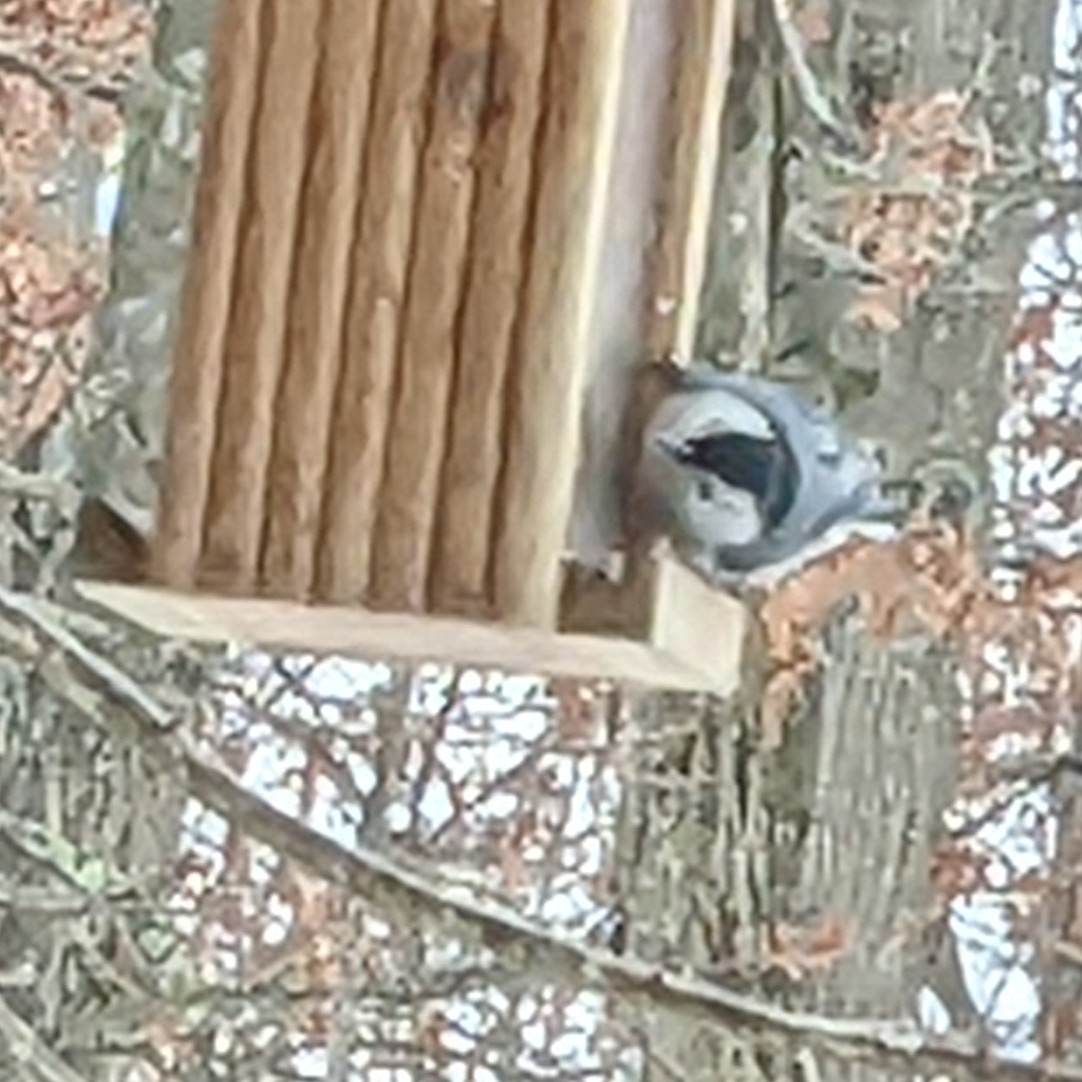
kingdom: Animalia
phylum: Chordata
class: Aves
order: Passeriformes
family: Sittidae
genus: Sitta
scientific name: Sitta carolinensis
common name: White-breasted nuthatch
